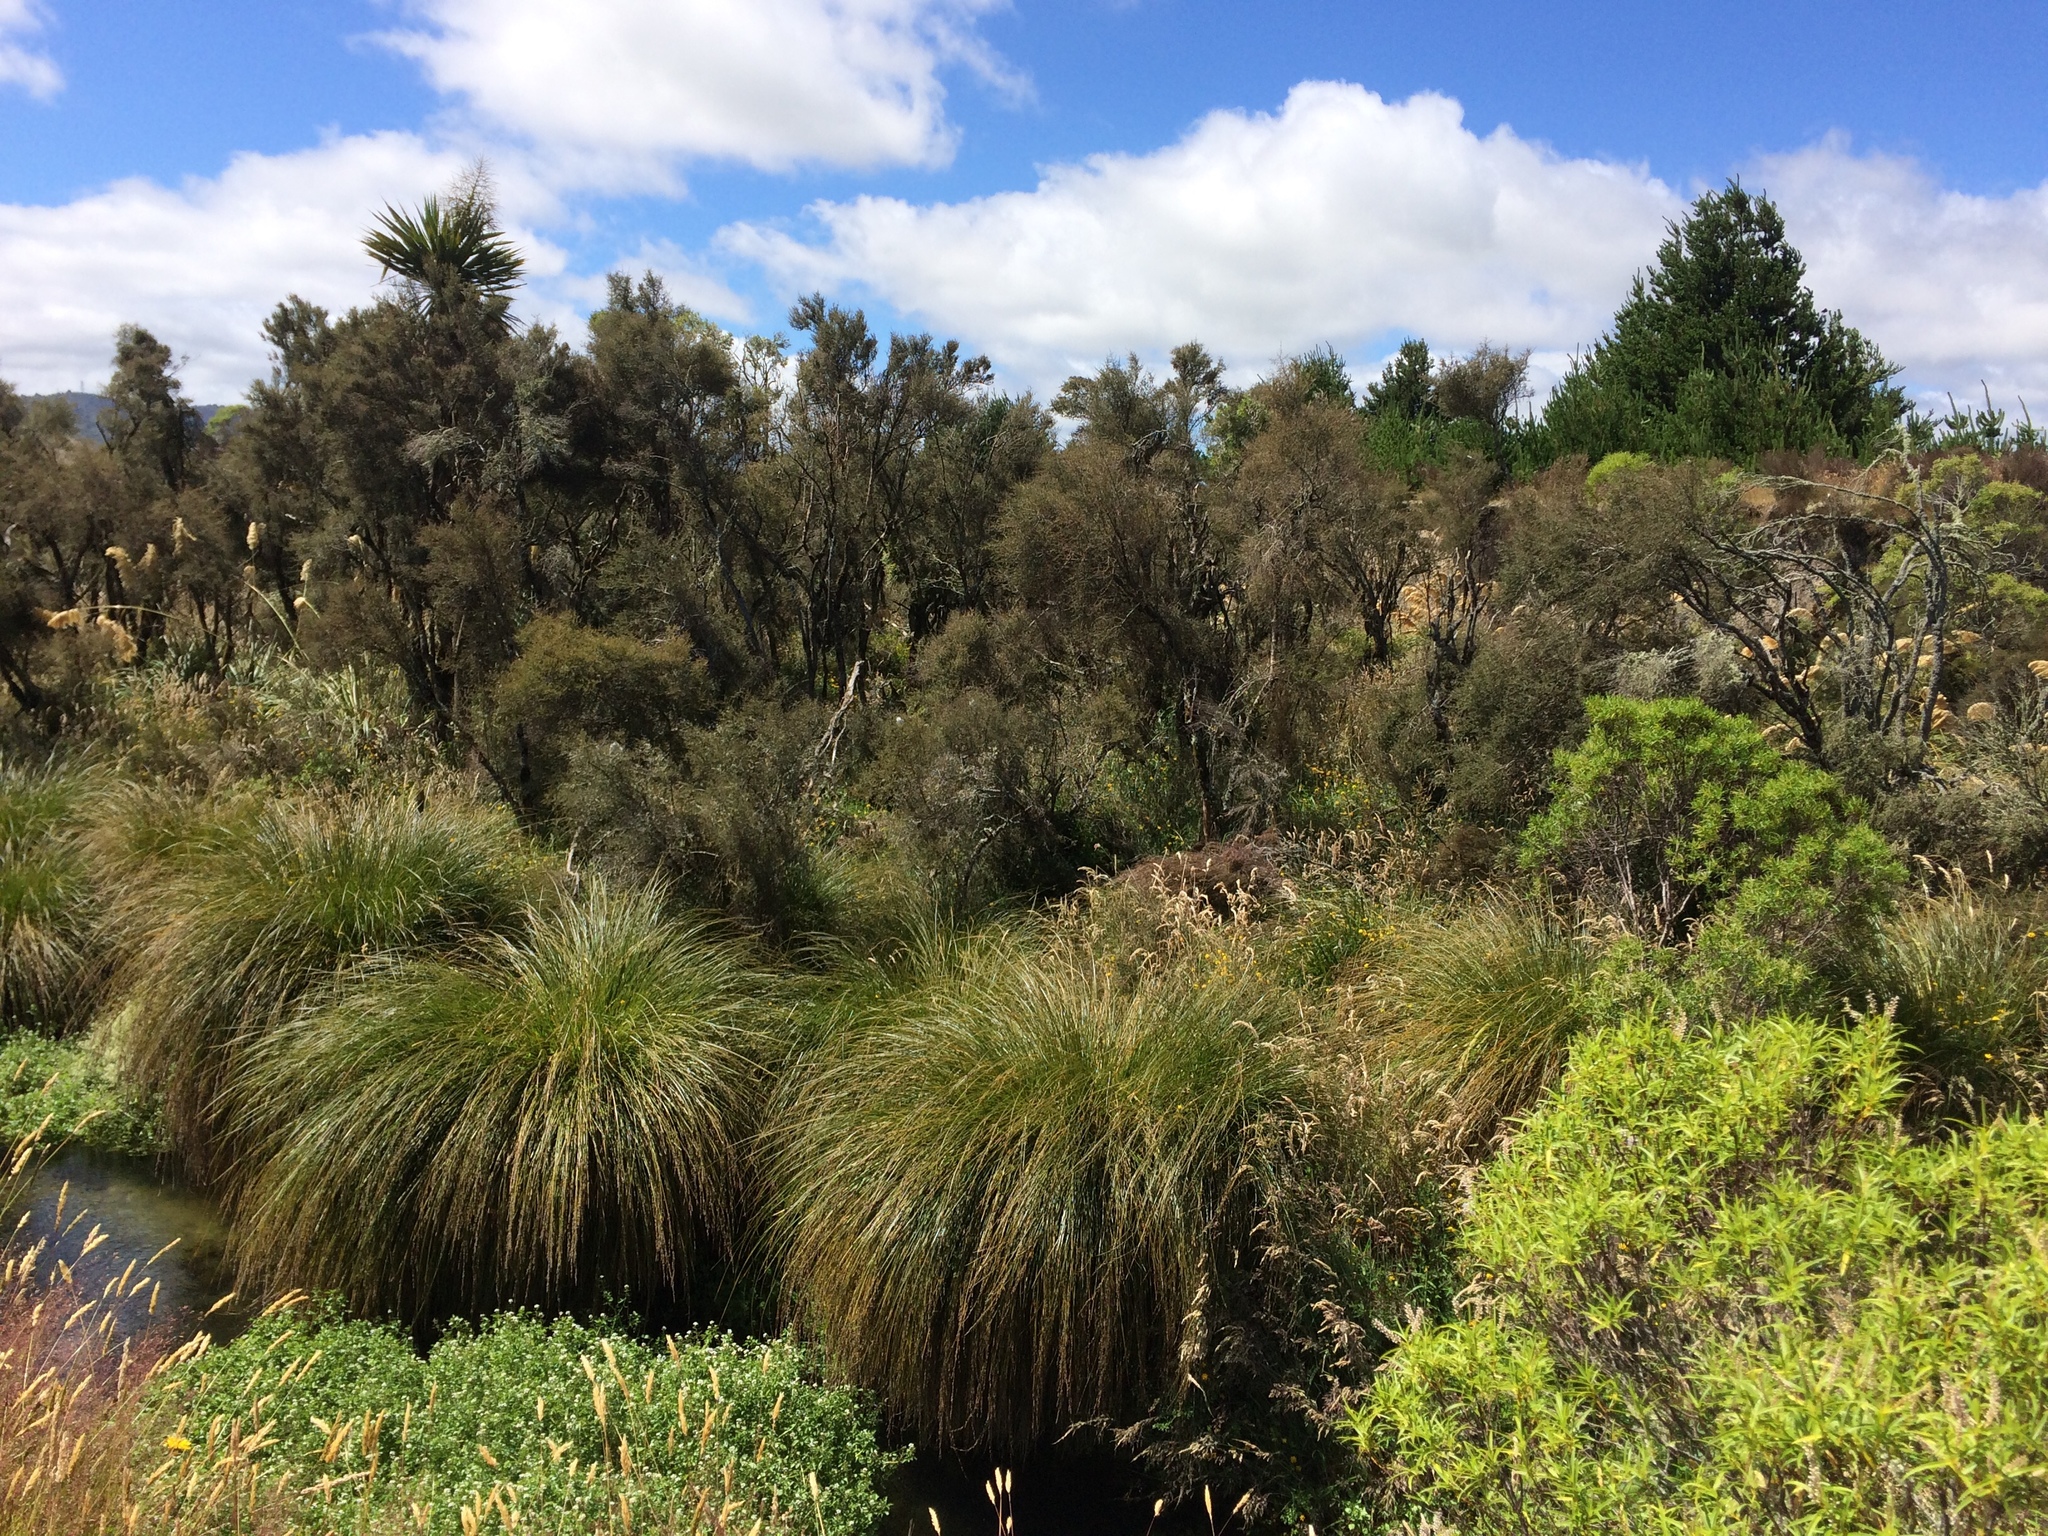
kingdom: Plantae
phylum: Tracheophyta
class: Liliopsida
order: Poales
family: Cyperaceae
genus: Carex
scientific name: Carex secta
